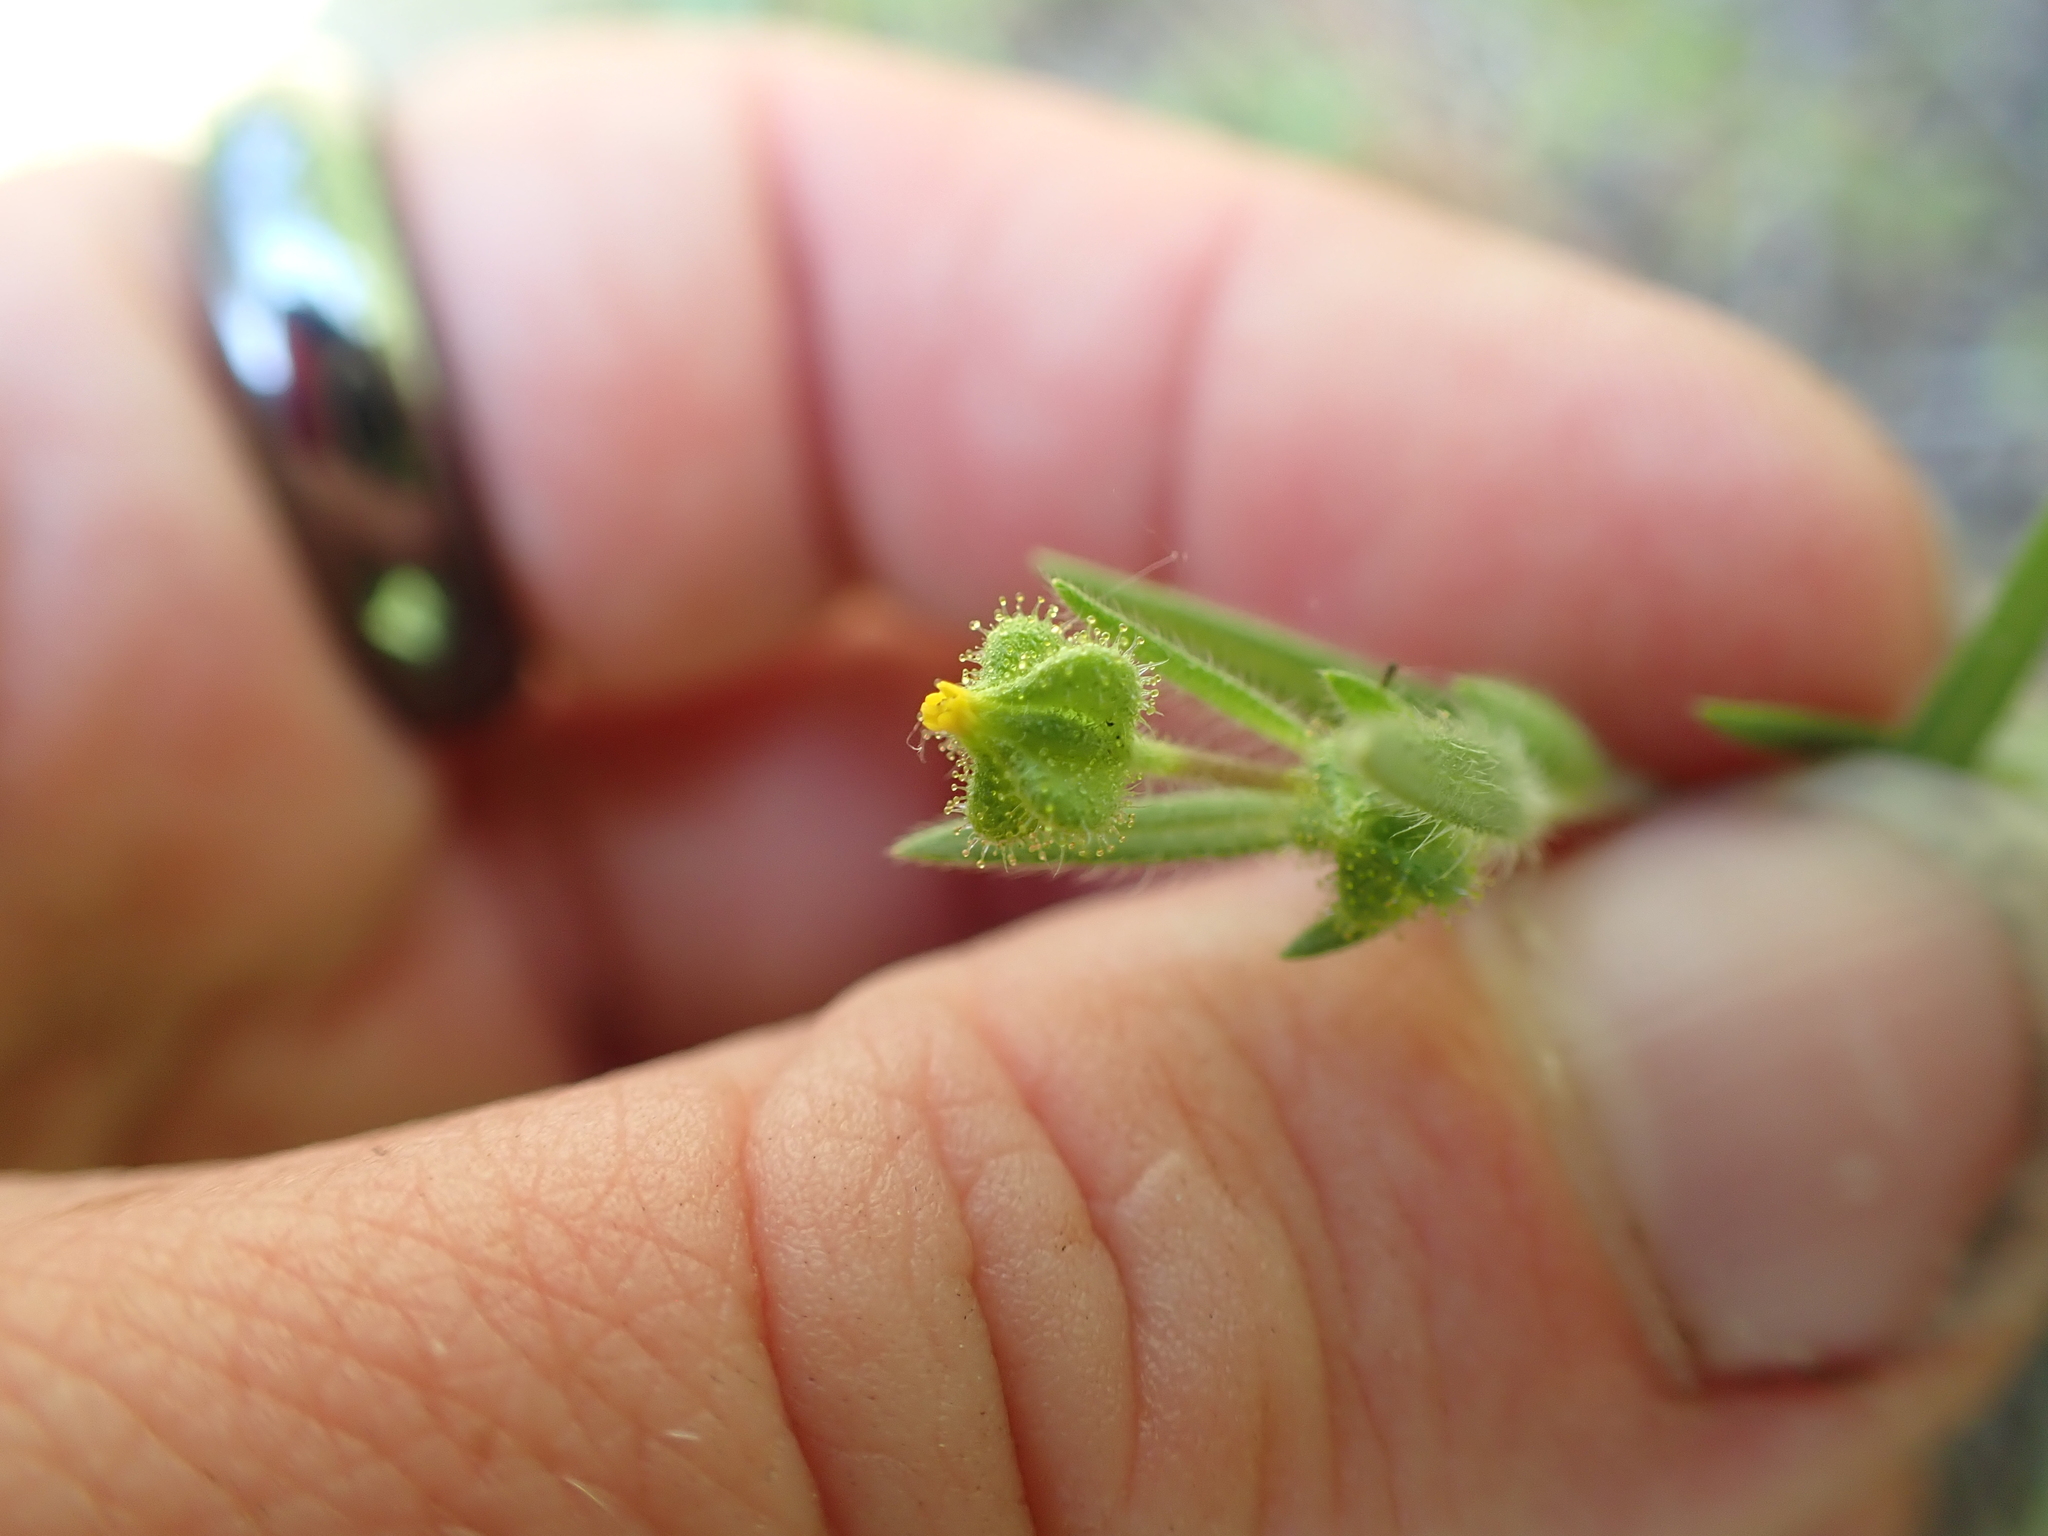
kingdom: Plantae
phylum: Tracheophyta
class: Magnoliopsida
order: Asterales
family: Asteraceae
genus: Madia
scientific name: Madia exigua
